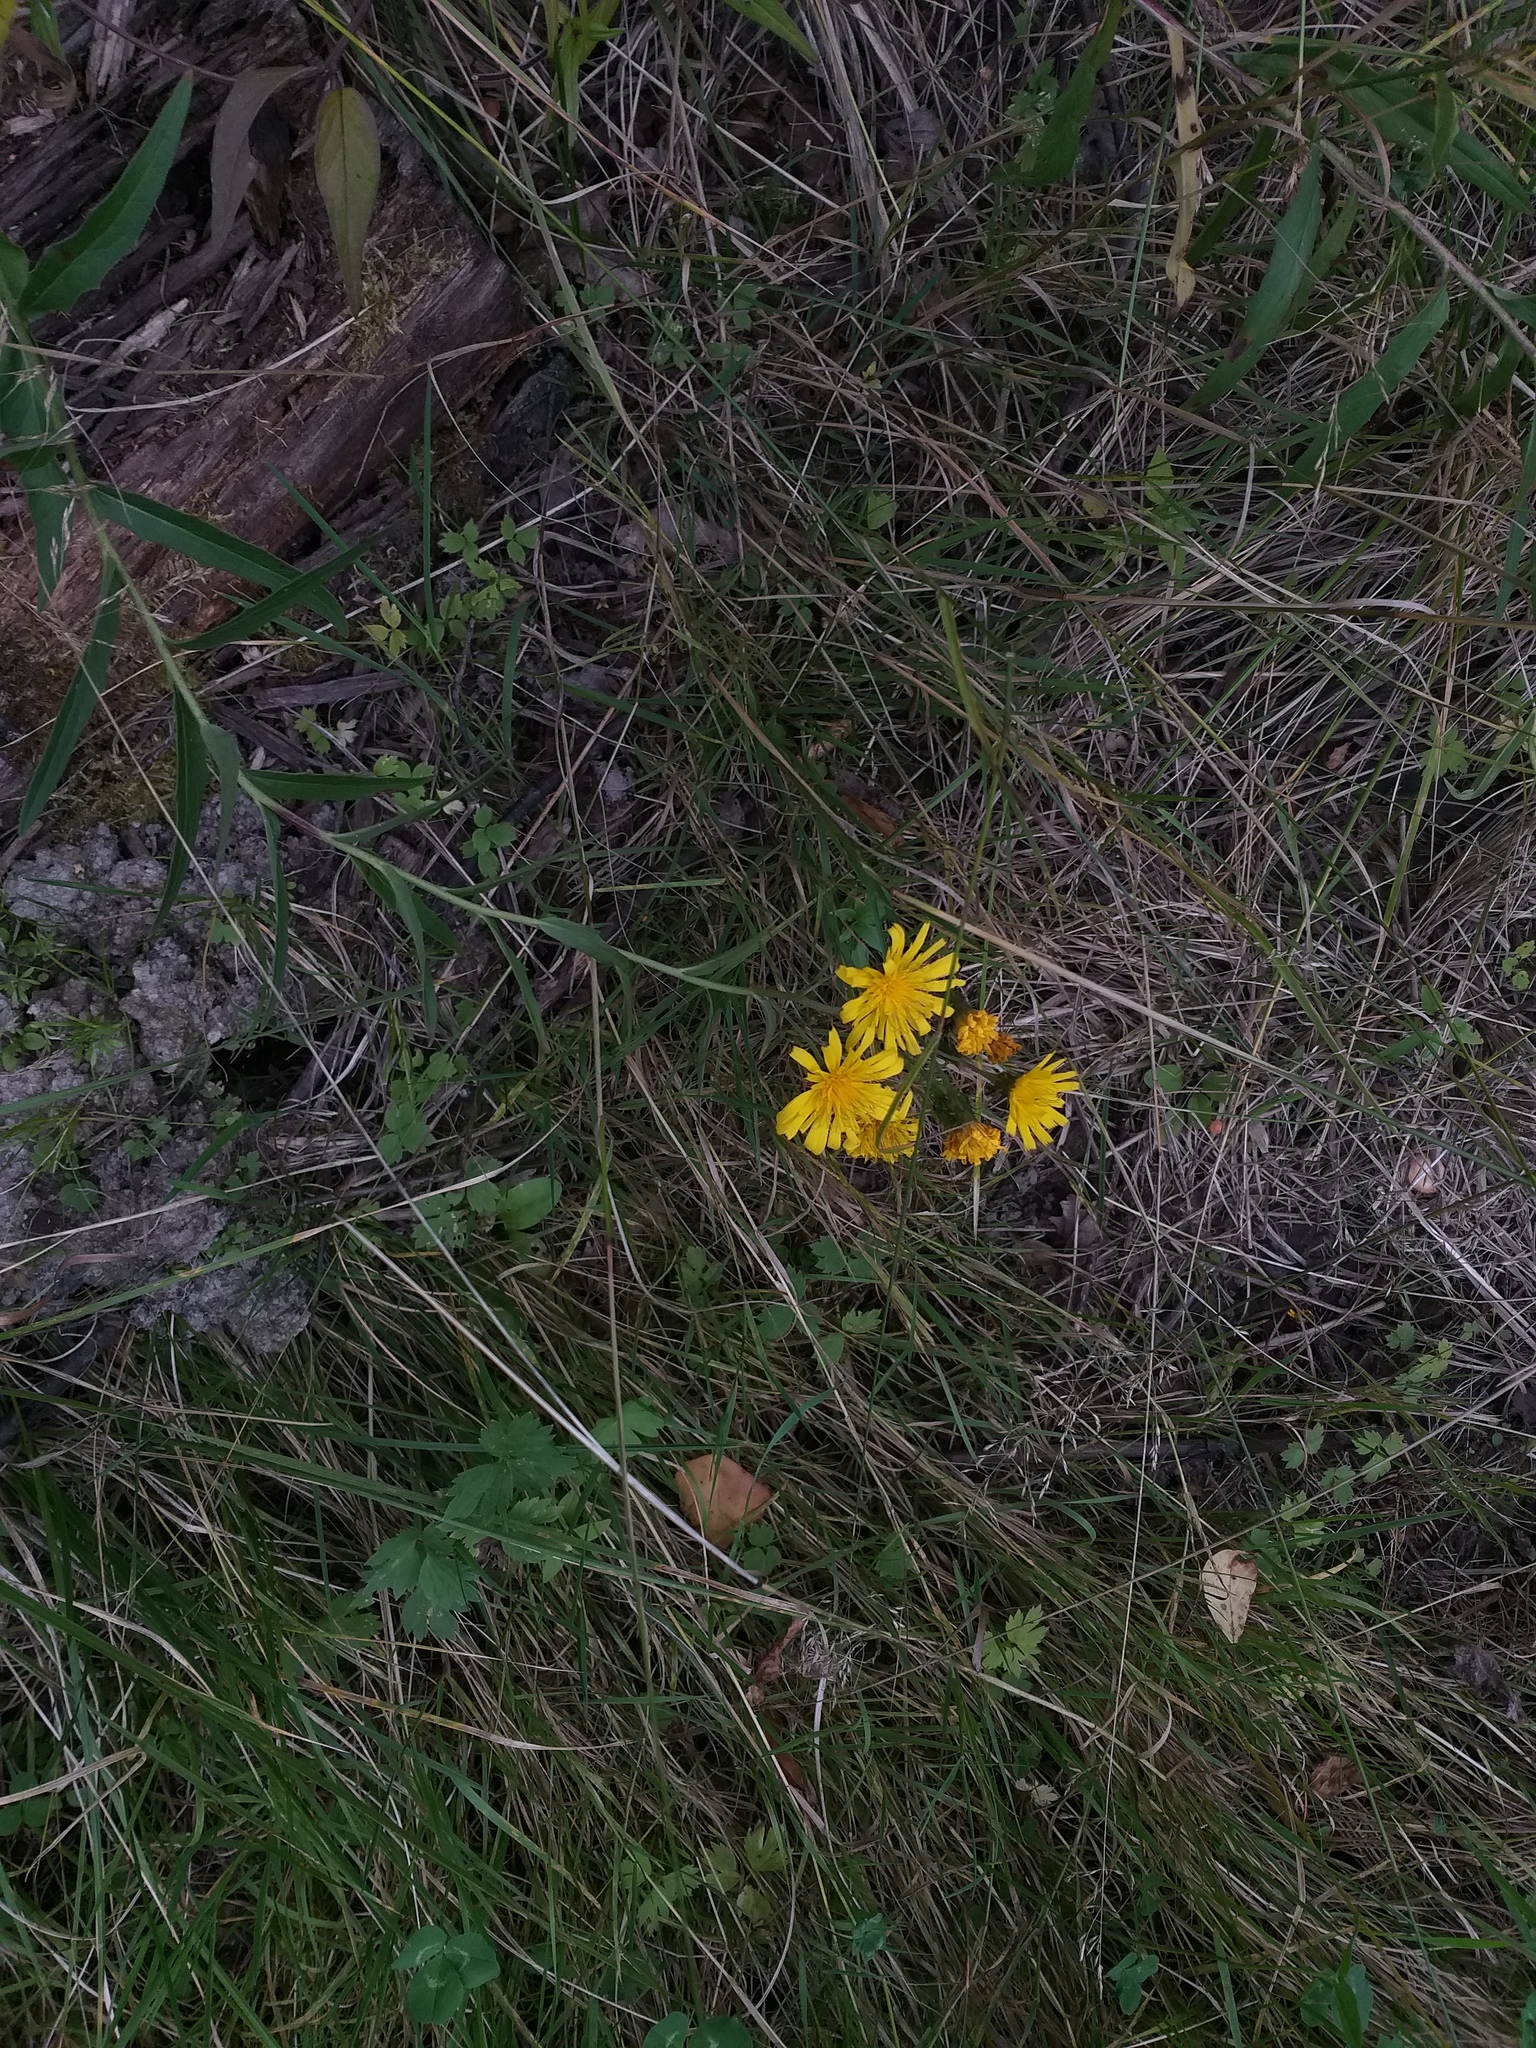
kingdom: Plantae
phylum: Tracheophyta
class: Magnoliopsida
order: Asterales
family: Asteraceae
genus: Hieracium
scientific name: Hieracium umbellatum
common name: Northern hawkweed
